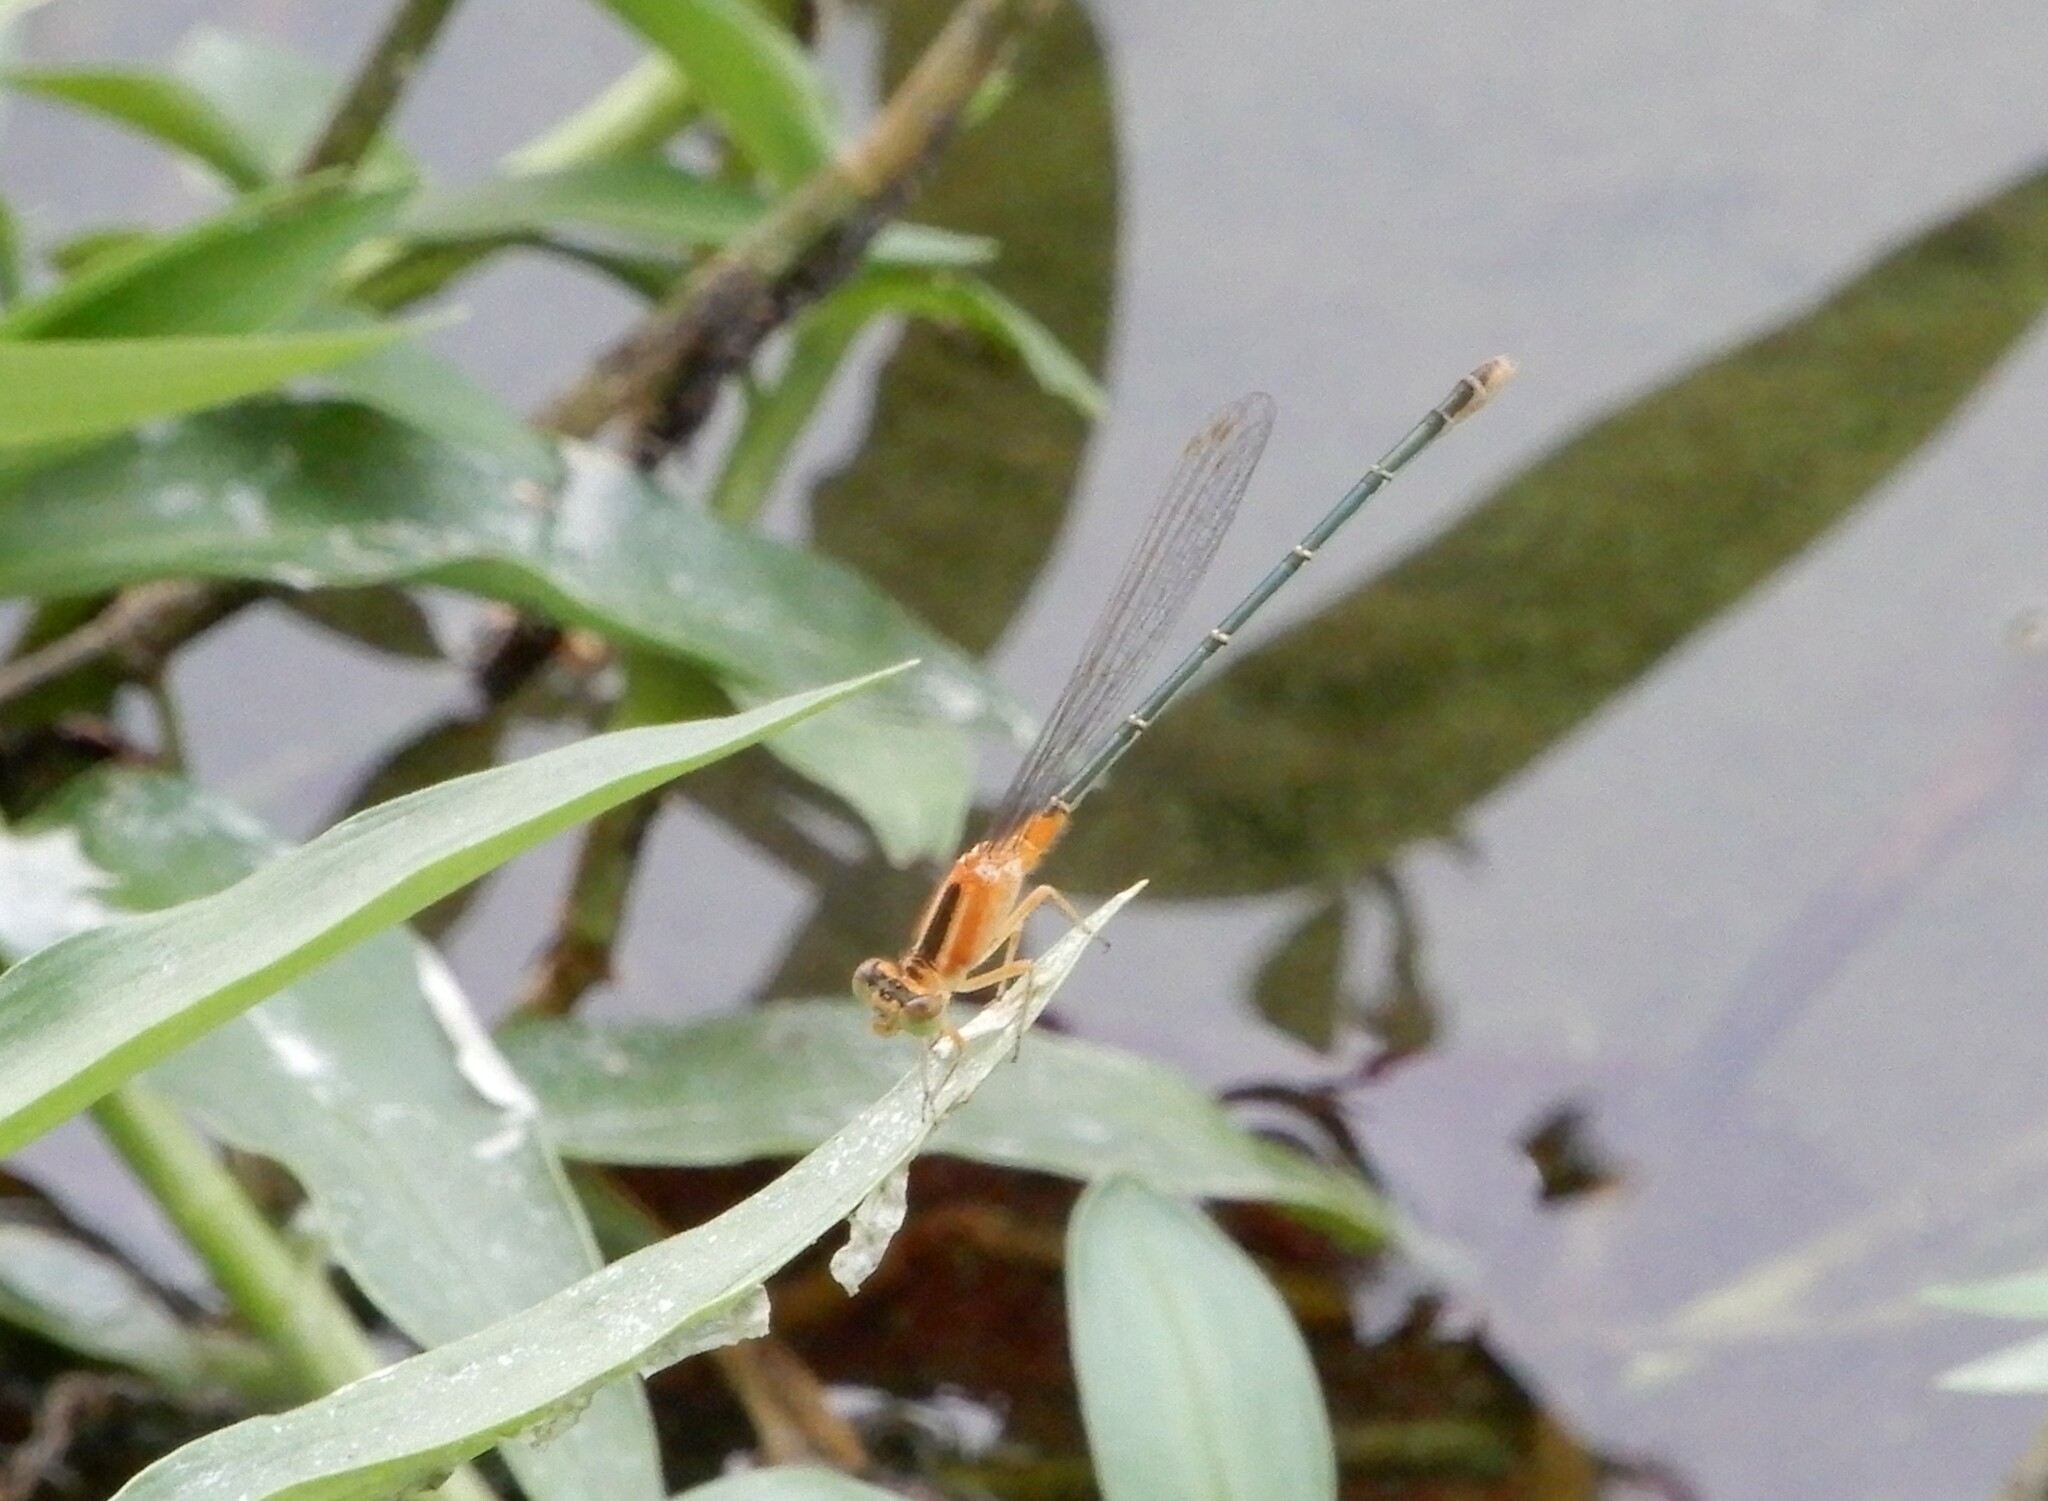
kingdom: Animalia
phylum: Arthropoda
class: Insecta
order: Odonata
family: Coenagrionidae
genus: Ischnura
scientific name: Ischnura senegalensis
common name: Tropical bluetail
